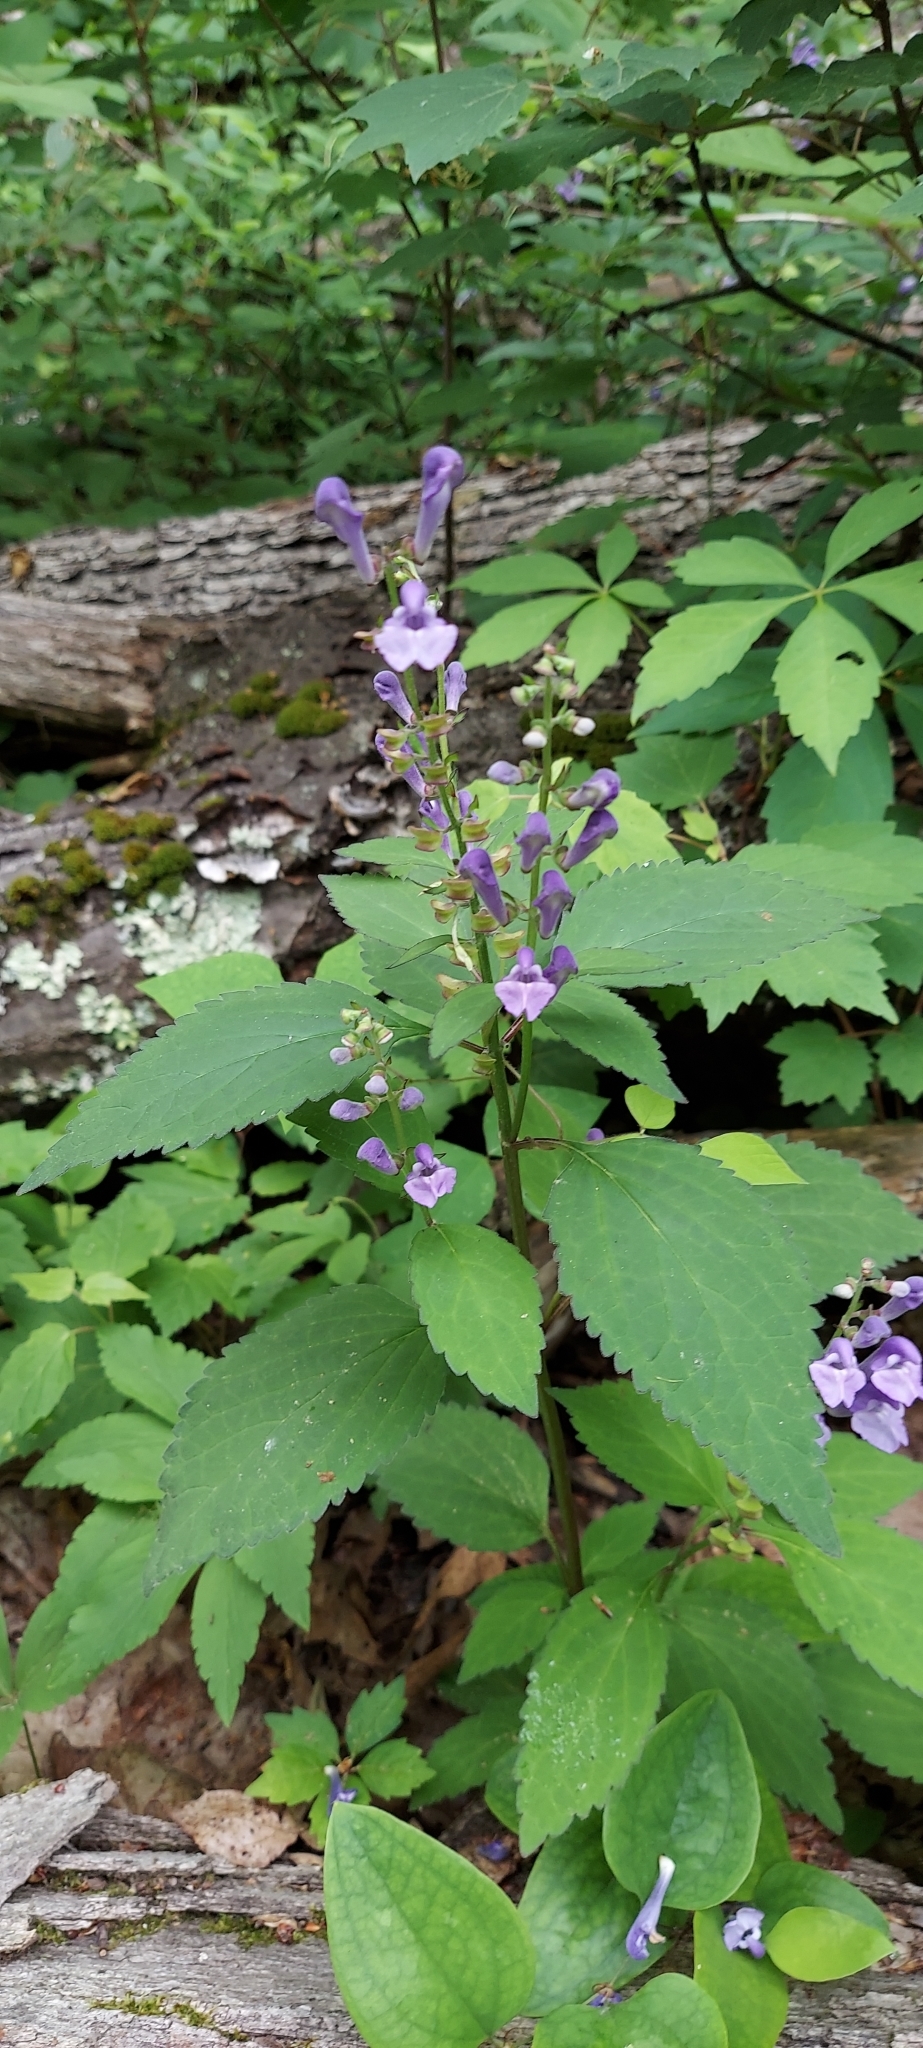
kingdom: Plantae
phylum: Tracheophyta
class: Magnoliopsida
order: Lamiales
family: Lamiaceae
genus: Scutellaria
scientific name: Scutellaria serrata
